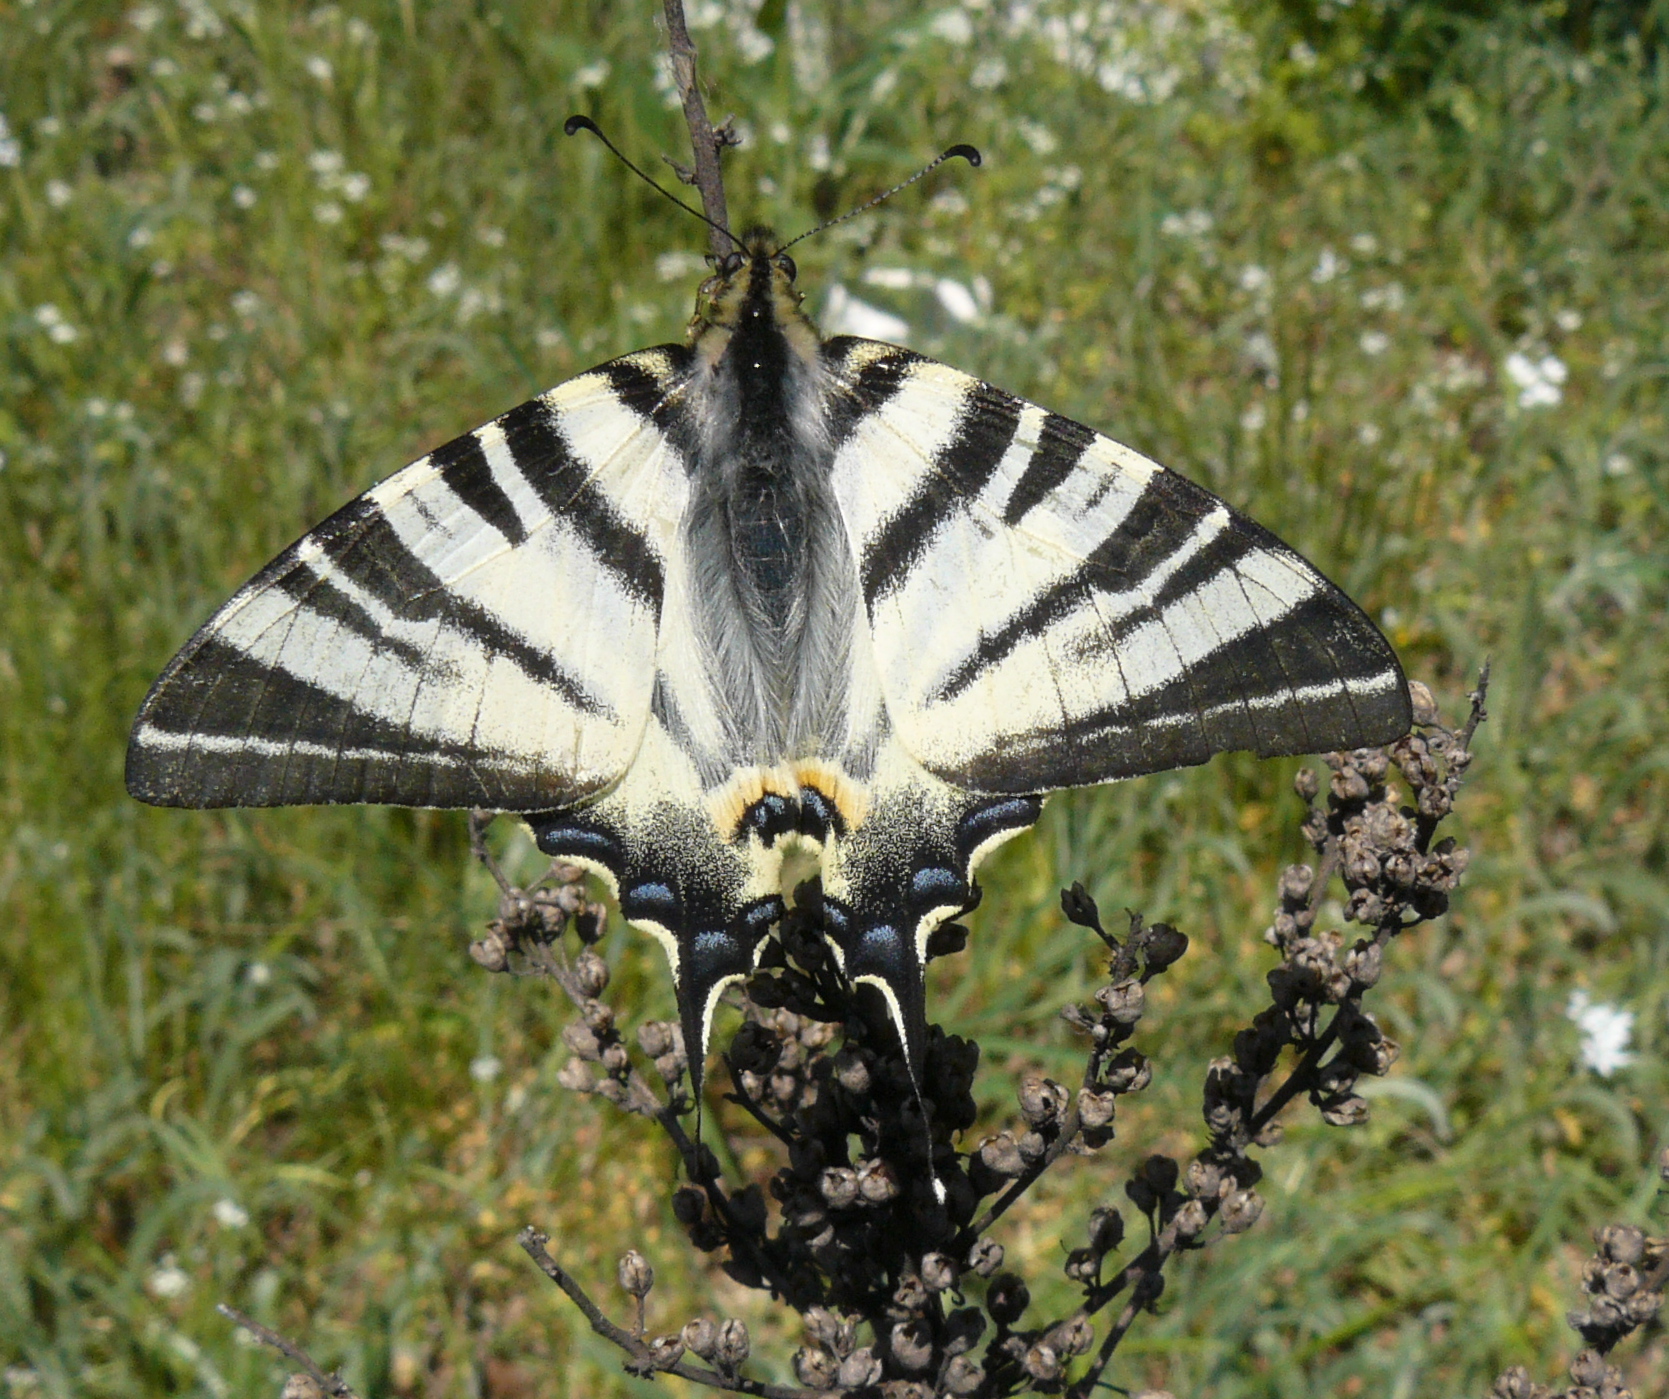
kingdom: Animalia
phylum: Arthropoda
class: Insecta
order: Lepidoptera
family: Papilionidae
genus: Iphiclides
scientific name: Iphiclides podalirius
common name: Scarce swallowtail
